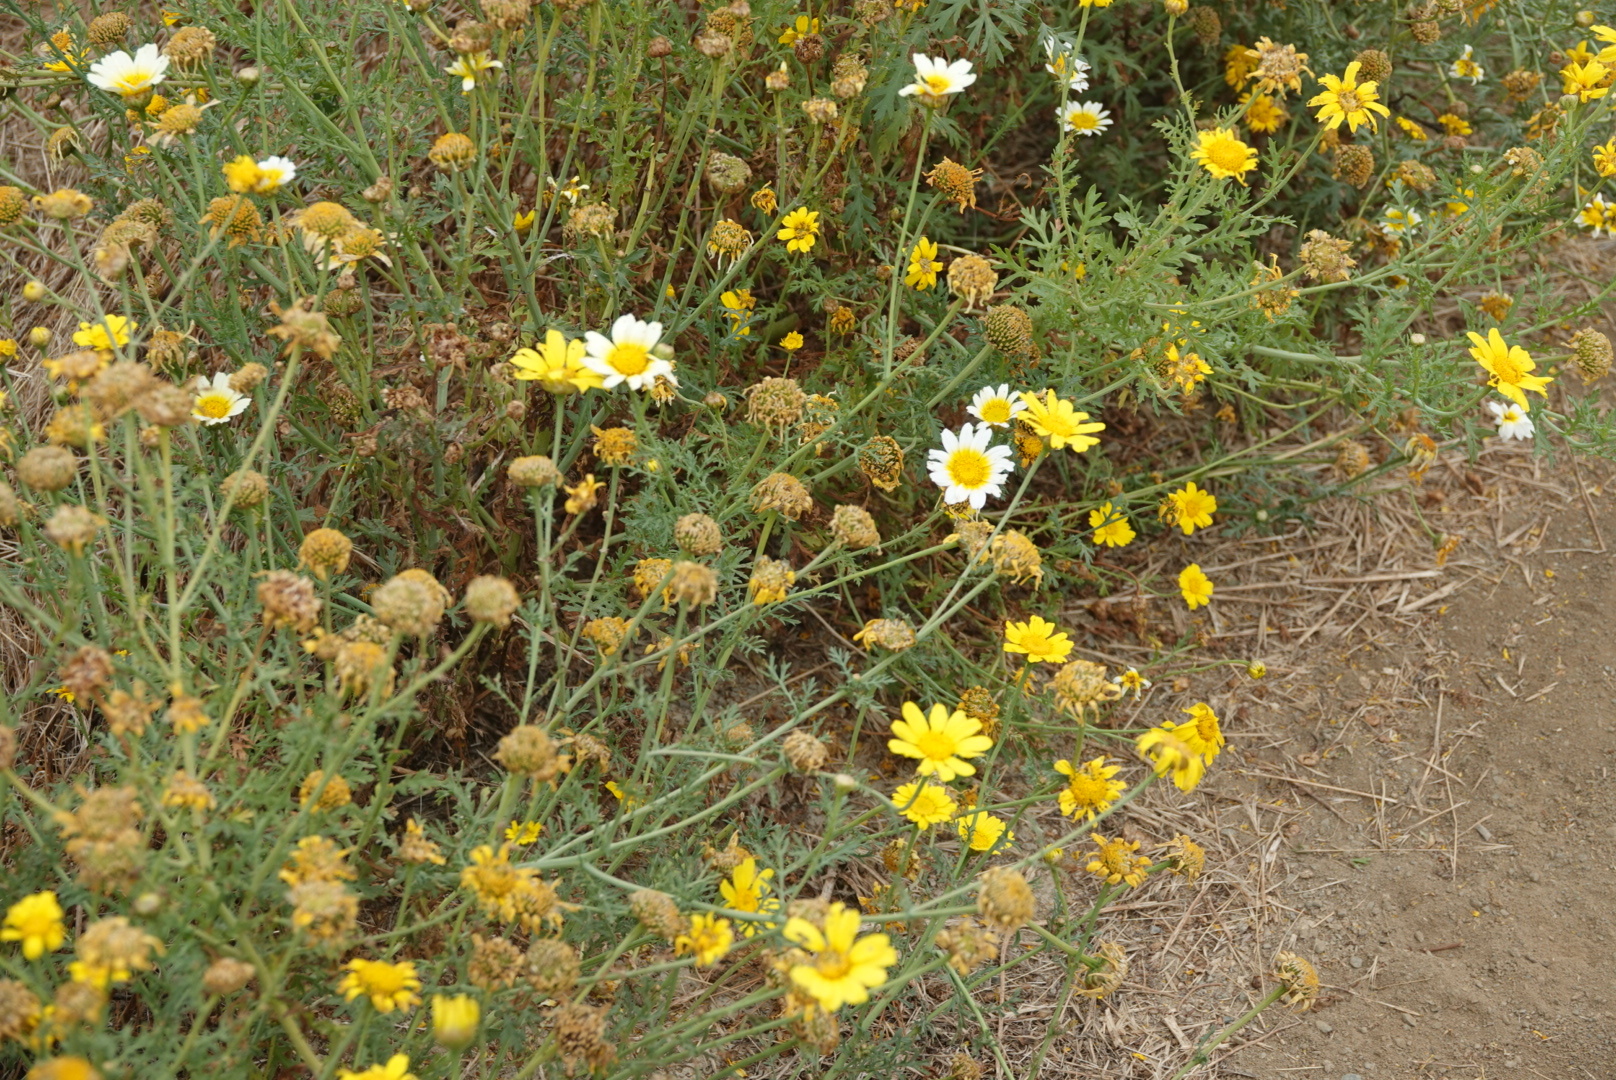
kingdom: Plantae
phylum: Tracheophyta
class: Magnoliopsida
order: Asterales
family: Asteraceae
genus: Glebionis
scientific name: Glebionis coronaria
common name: Crowndaisy
